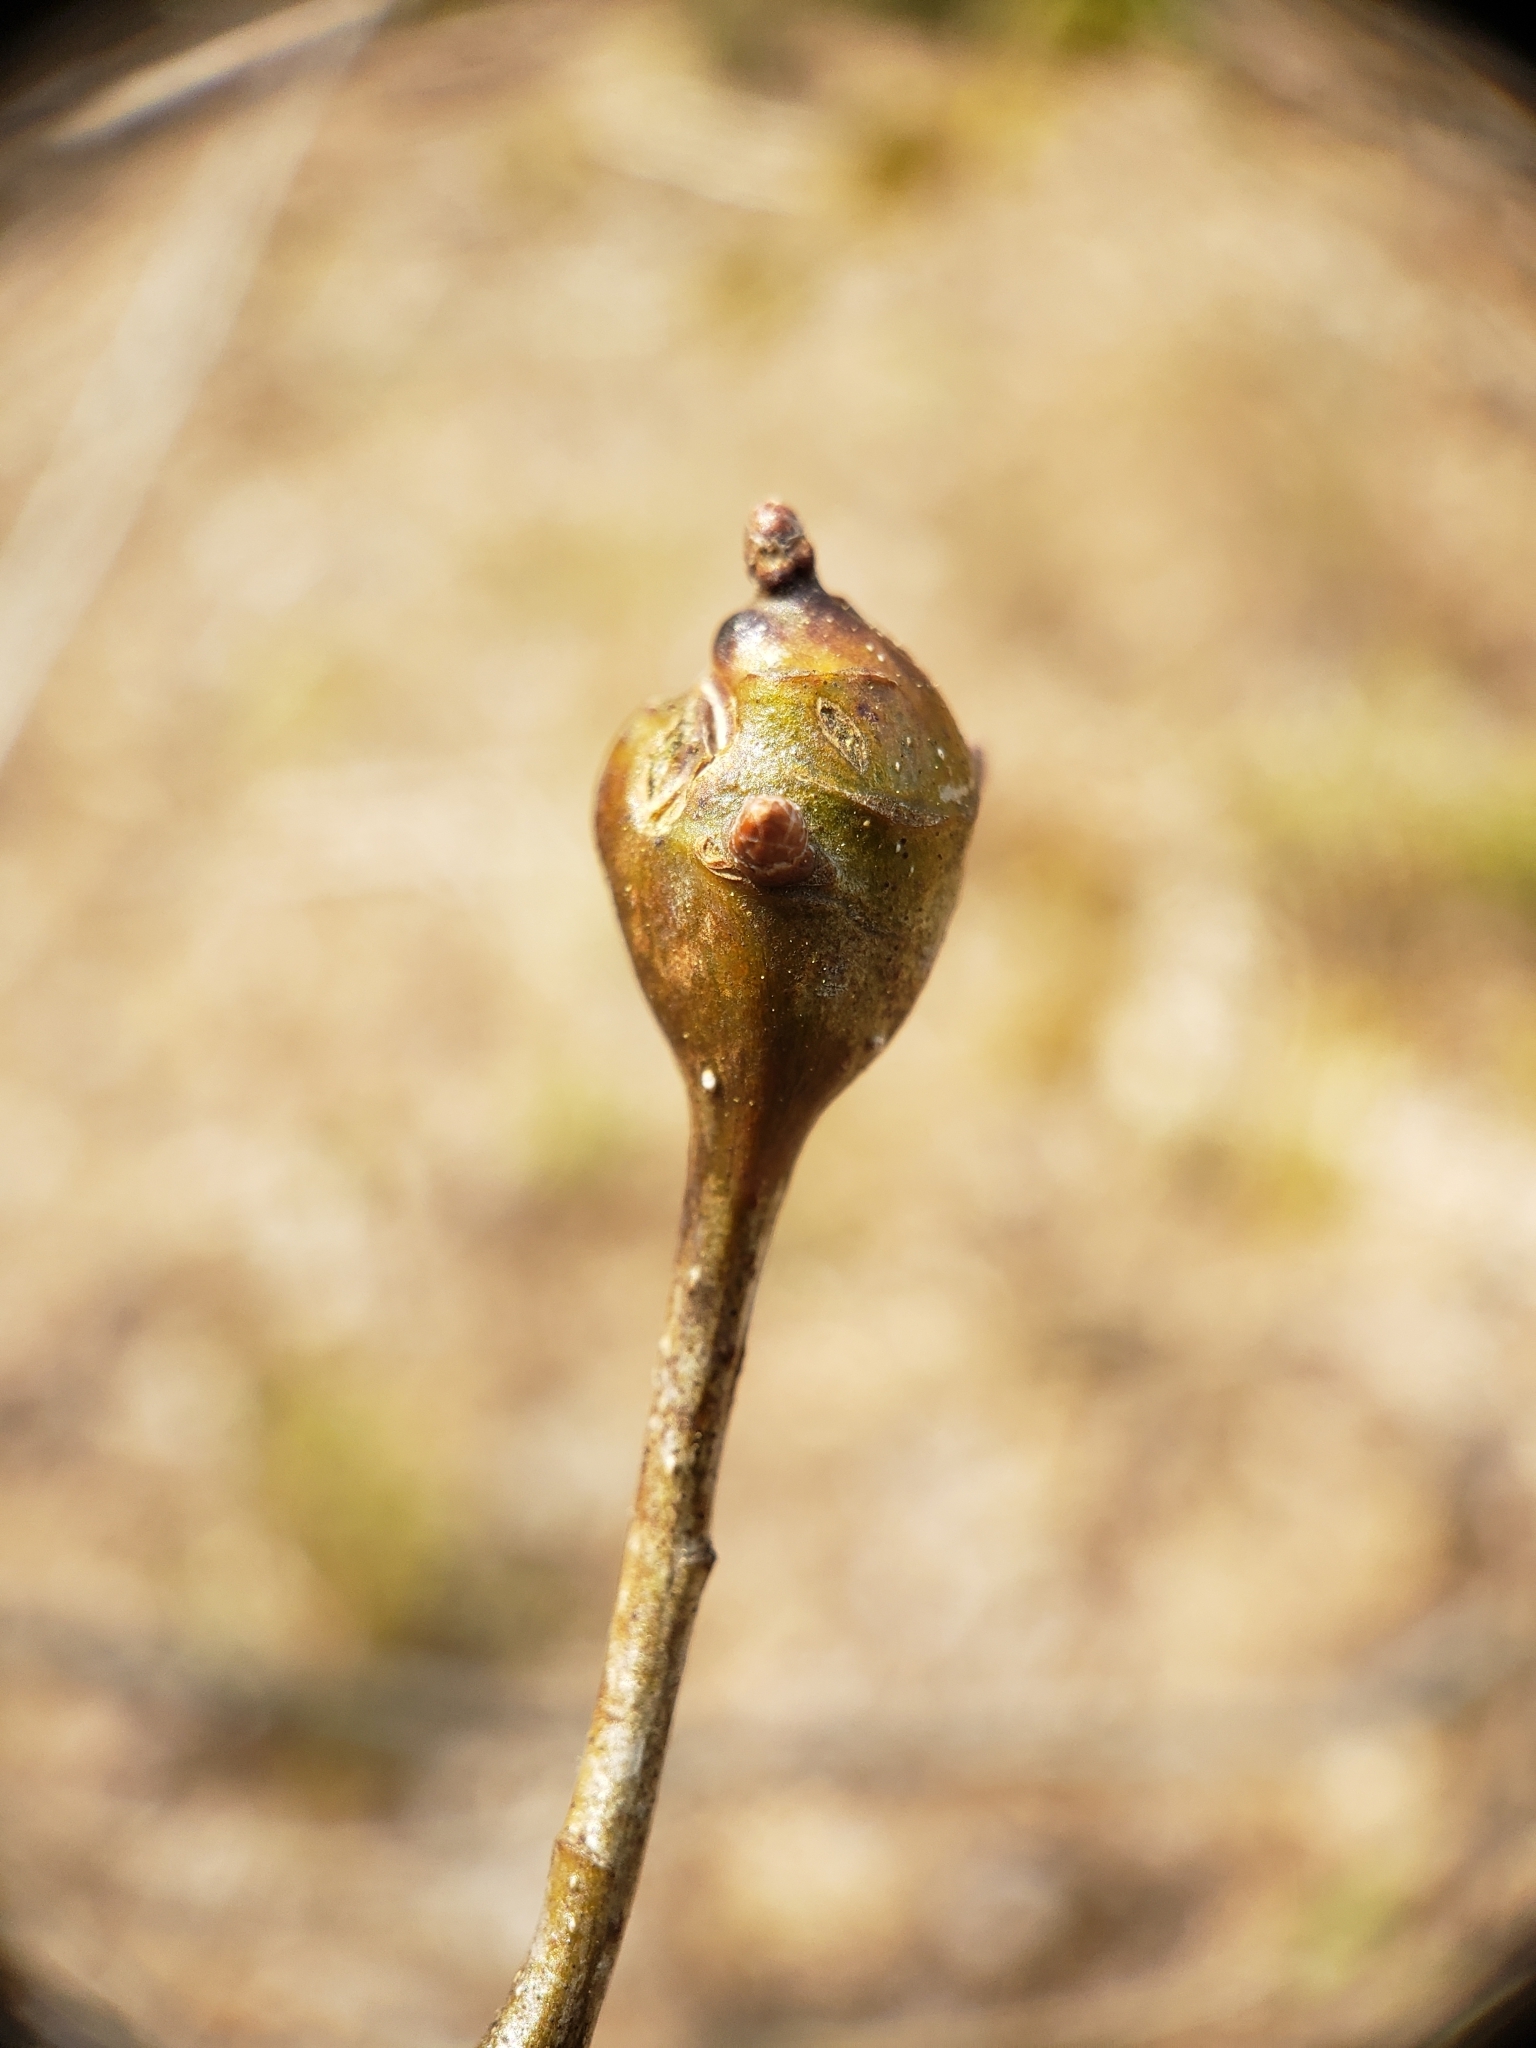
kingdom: Animalia
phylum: Arthropoda
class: Insecta
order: Hymenoptera
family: Cynipidae
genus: Callirhytis
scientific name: Callirhytis clavula
